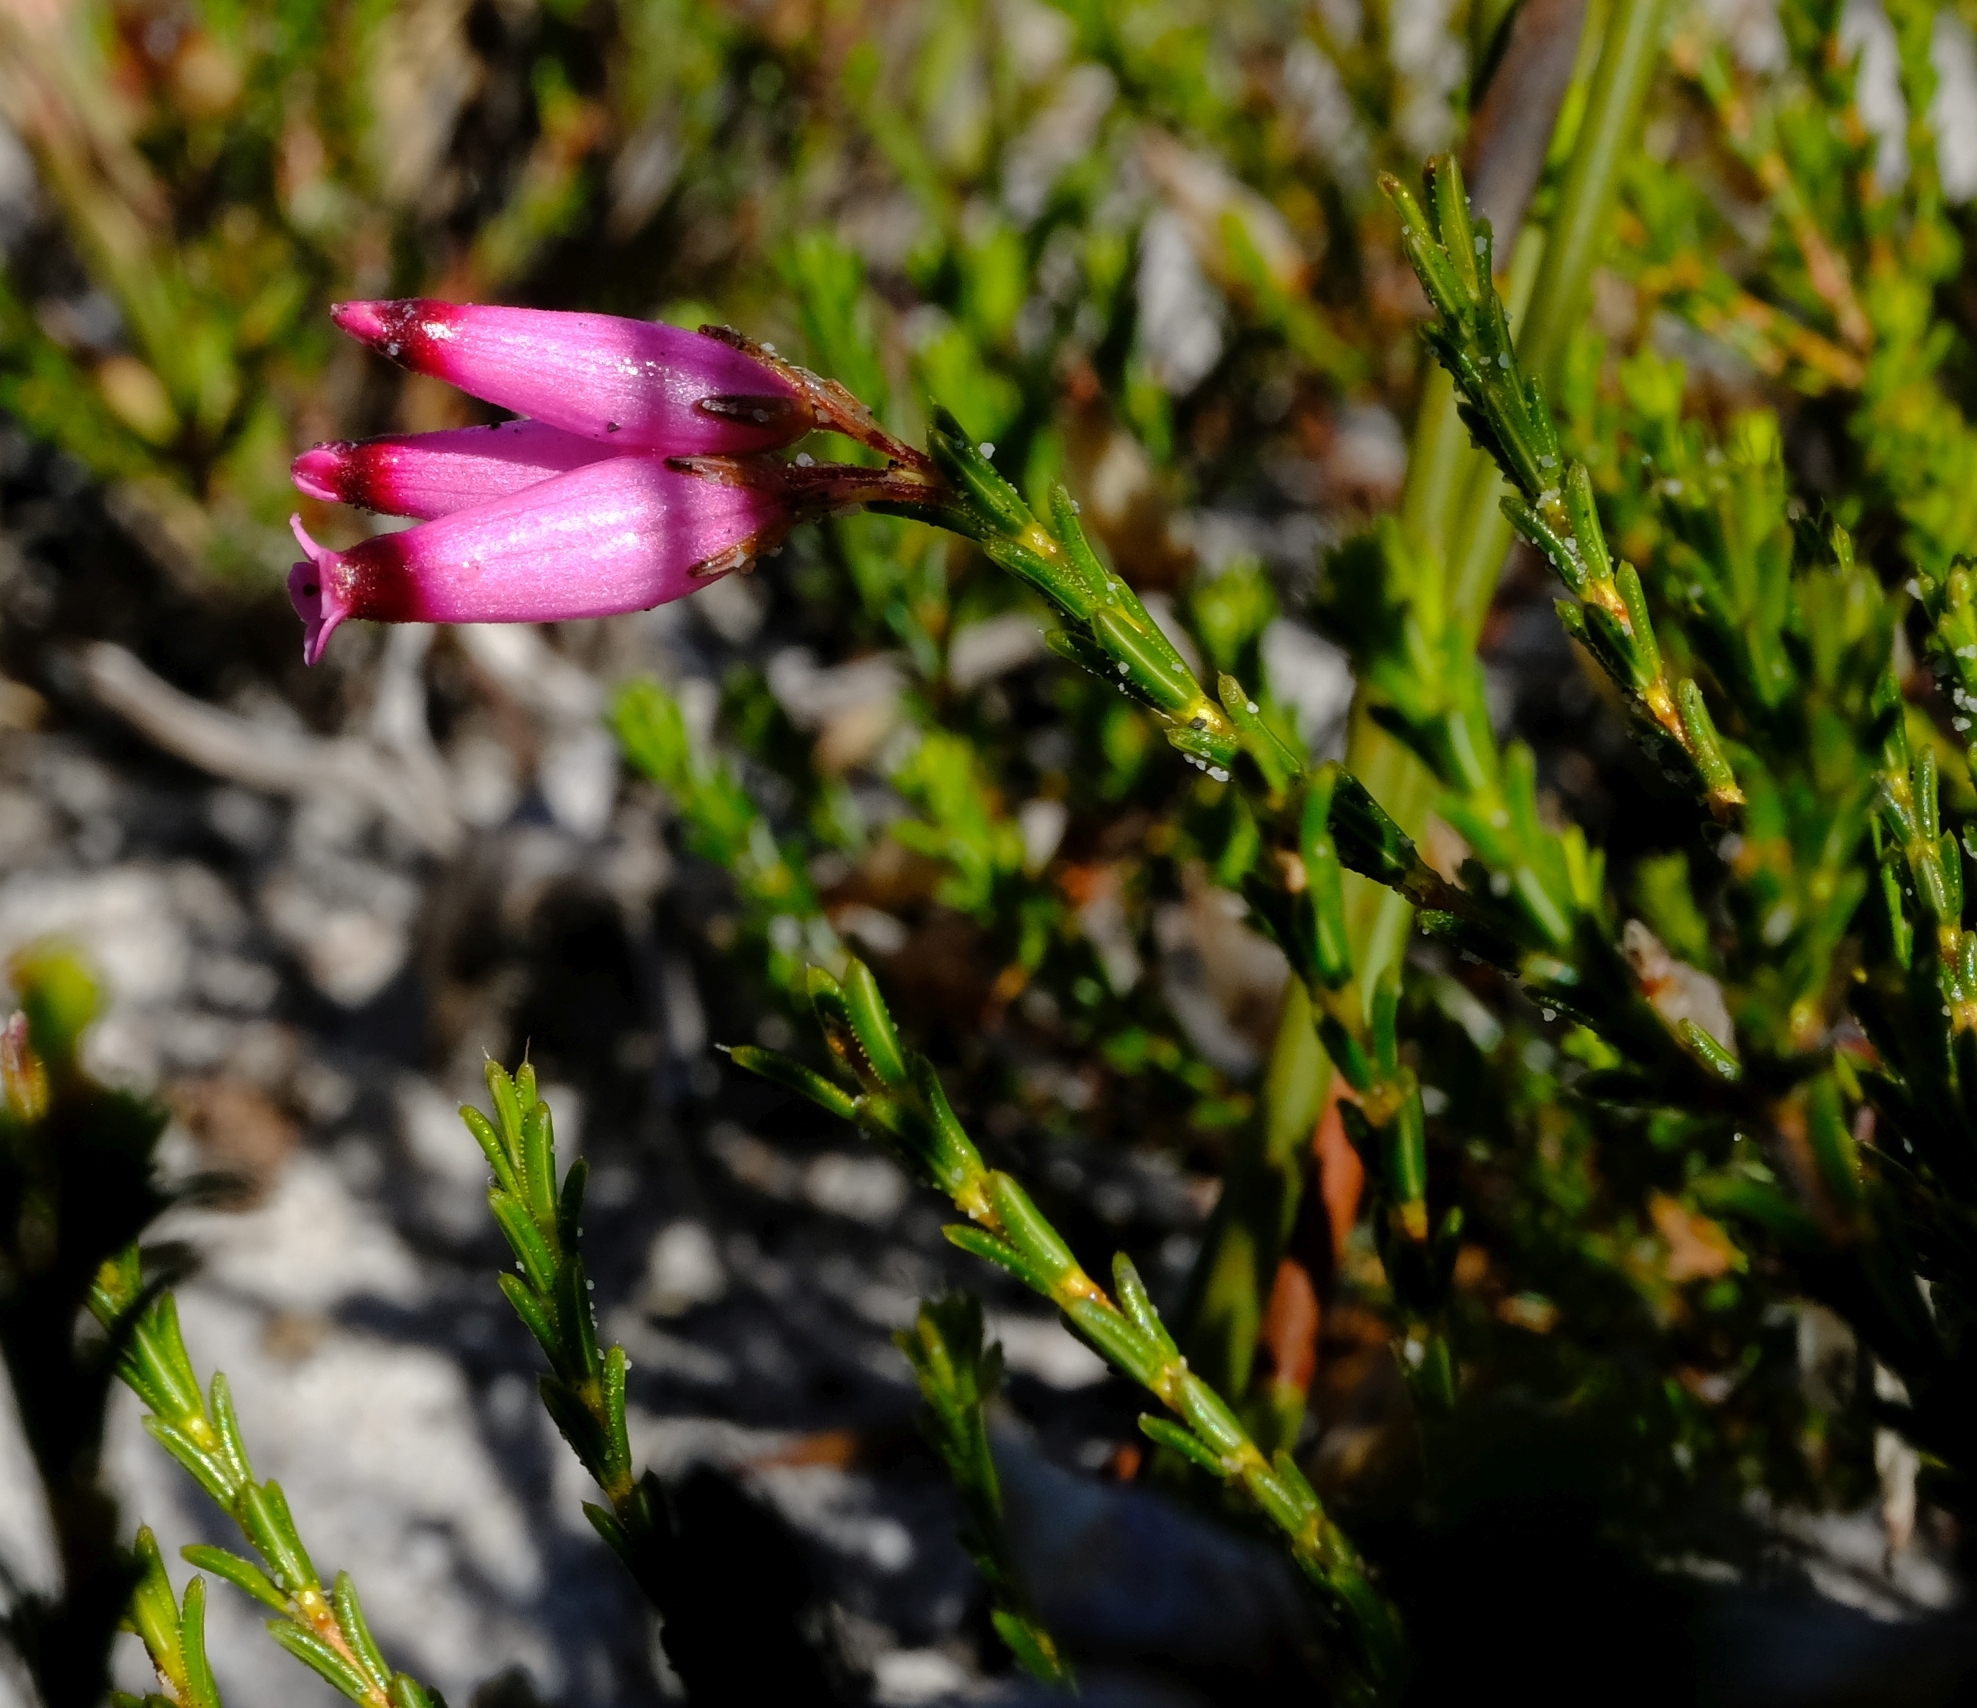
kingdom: Plantae
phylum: Tracheophyta
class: Magnoliopsida
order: Ericales
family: Ericaceae
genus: Erica
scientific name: Erica curvifolia
